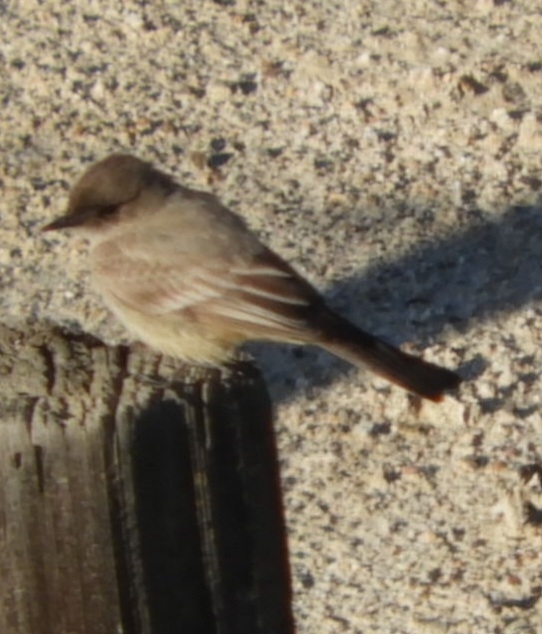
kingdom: Animalia
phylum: Chordata
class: Aves
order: Passeriformes
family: Tyrannidae
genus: Sayornis
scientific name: Sayornis saya
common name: Say's phoebe
